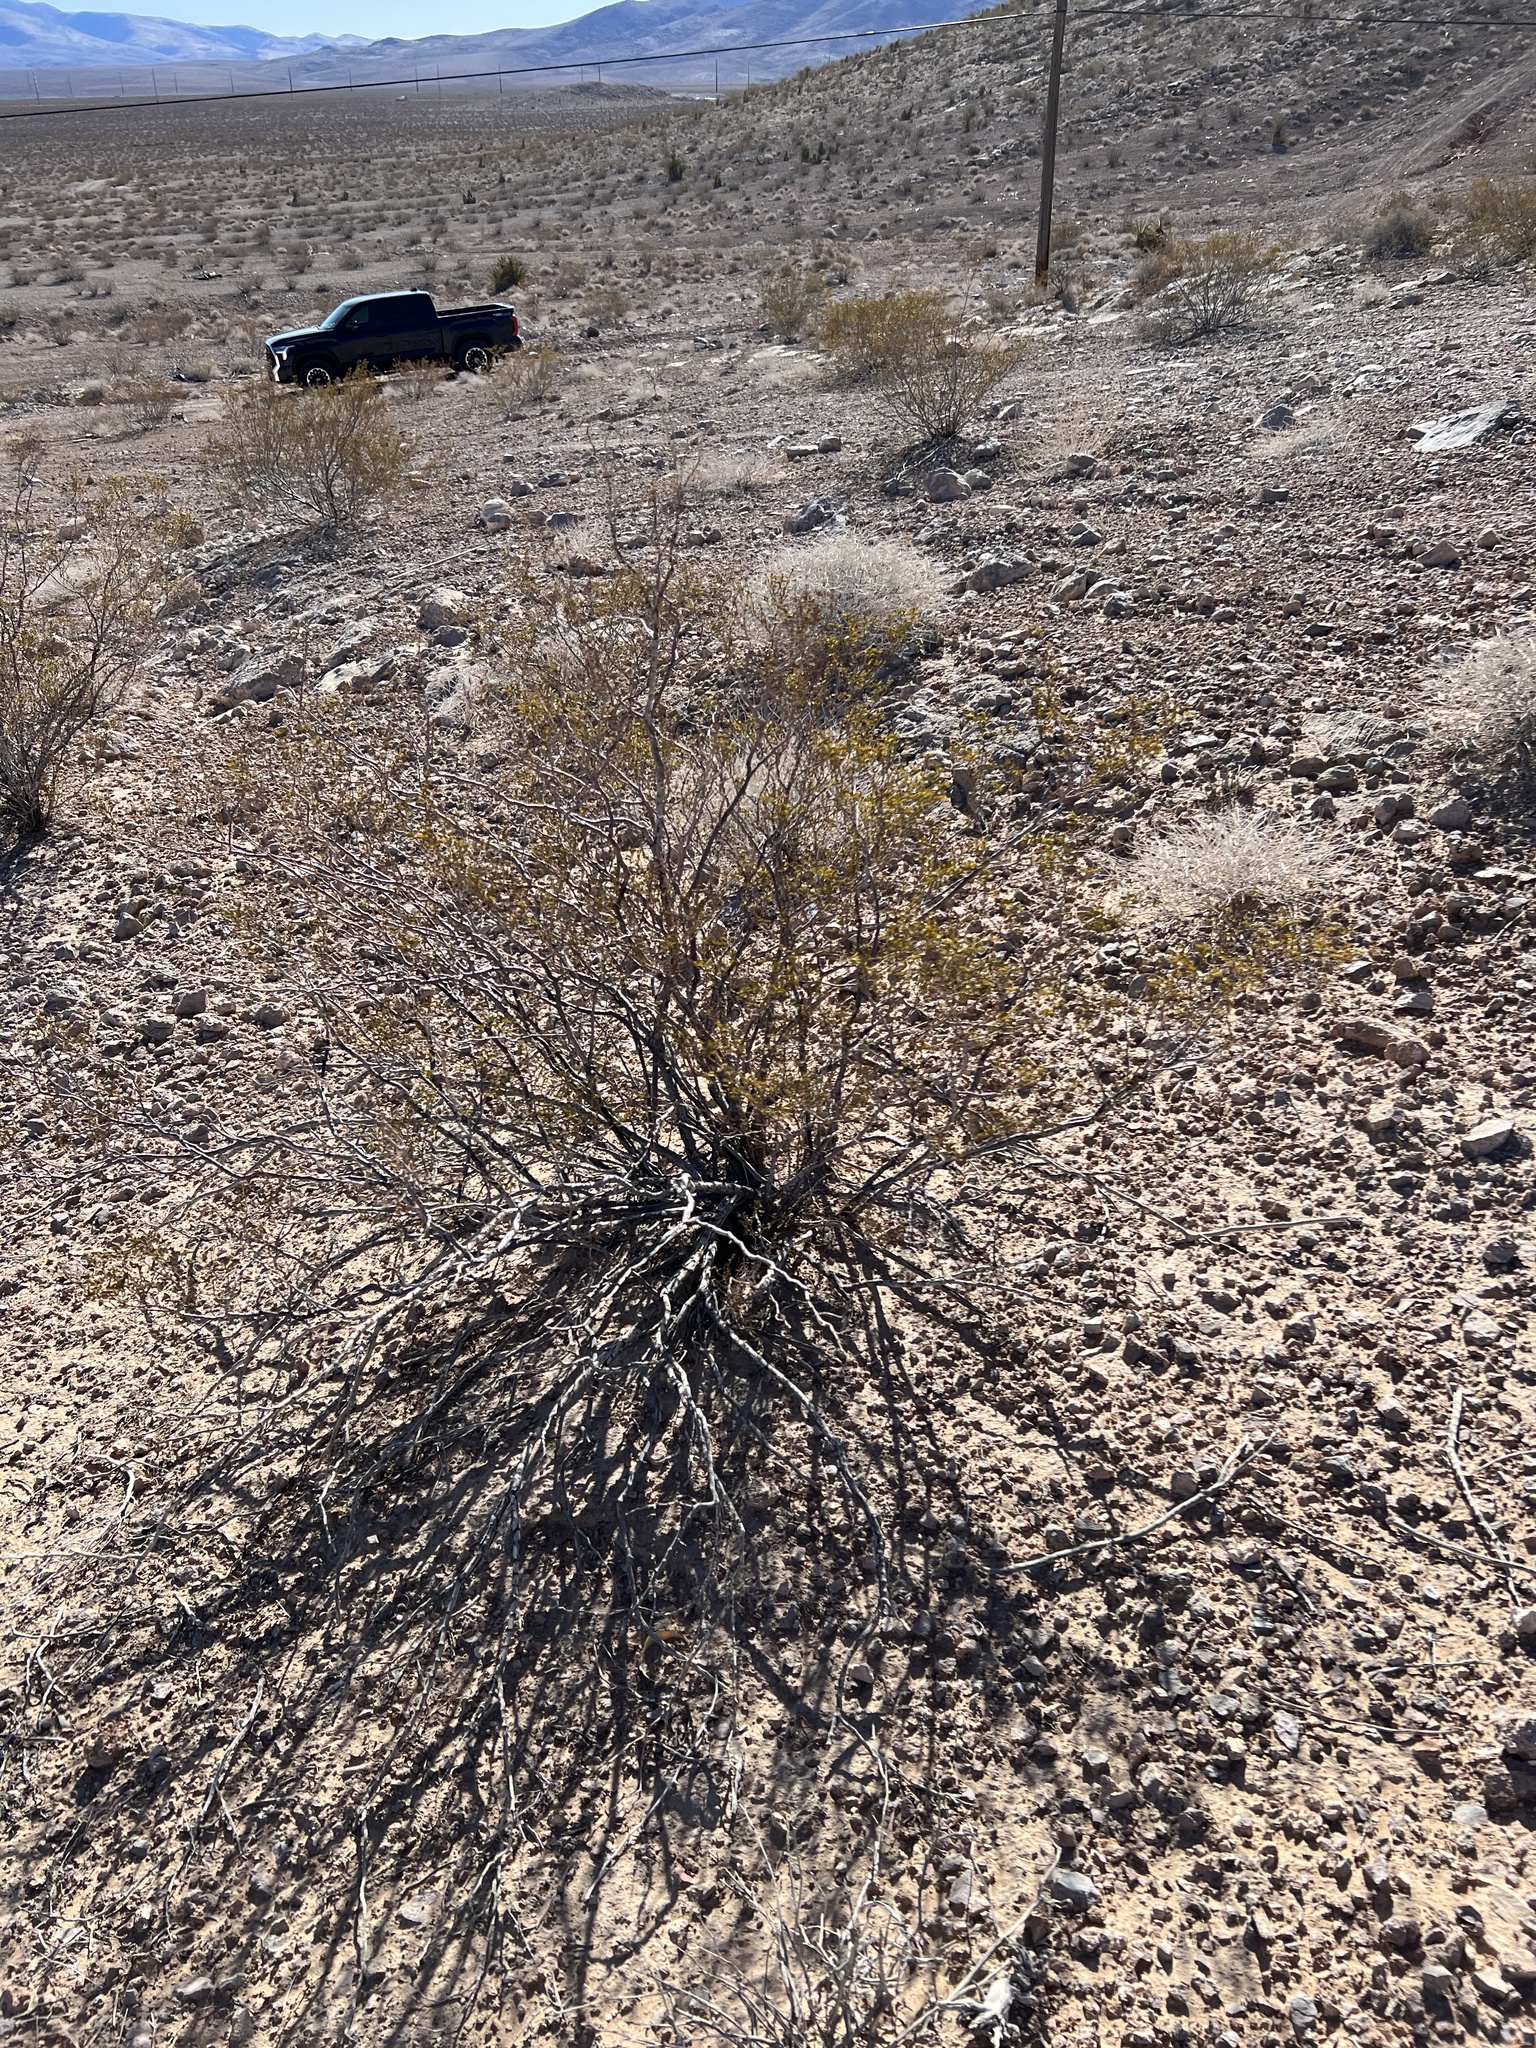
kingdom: Plantae
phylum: Tracheophyta
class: Magnoliopsida
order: Zygophyllales
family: Zygophyllaceae
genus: Larrea
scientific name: Larrea tridentata
